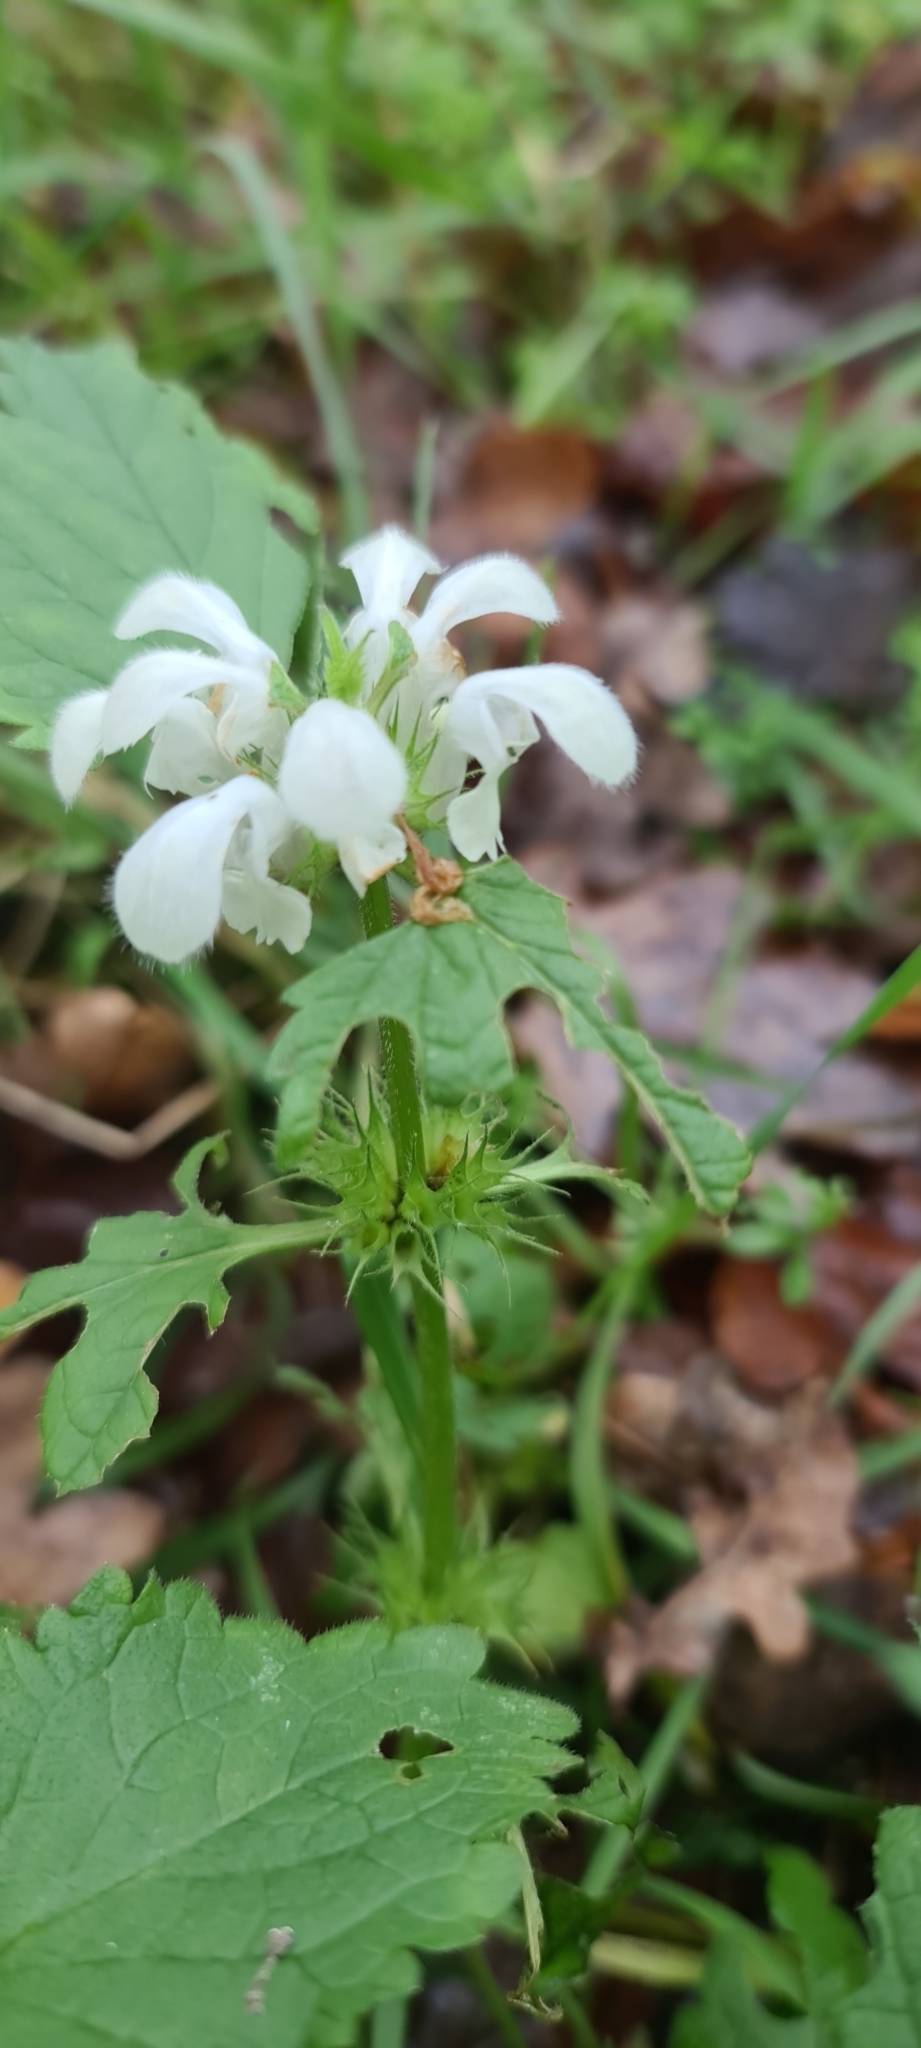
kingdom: Plantae
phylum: Tracheophyta
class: Magnoliopsida
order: Lamiales
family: Lamiaceae
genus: Lamium
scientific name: Lamium album
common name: White dead-nettle
